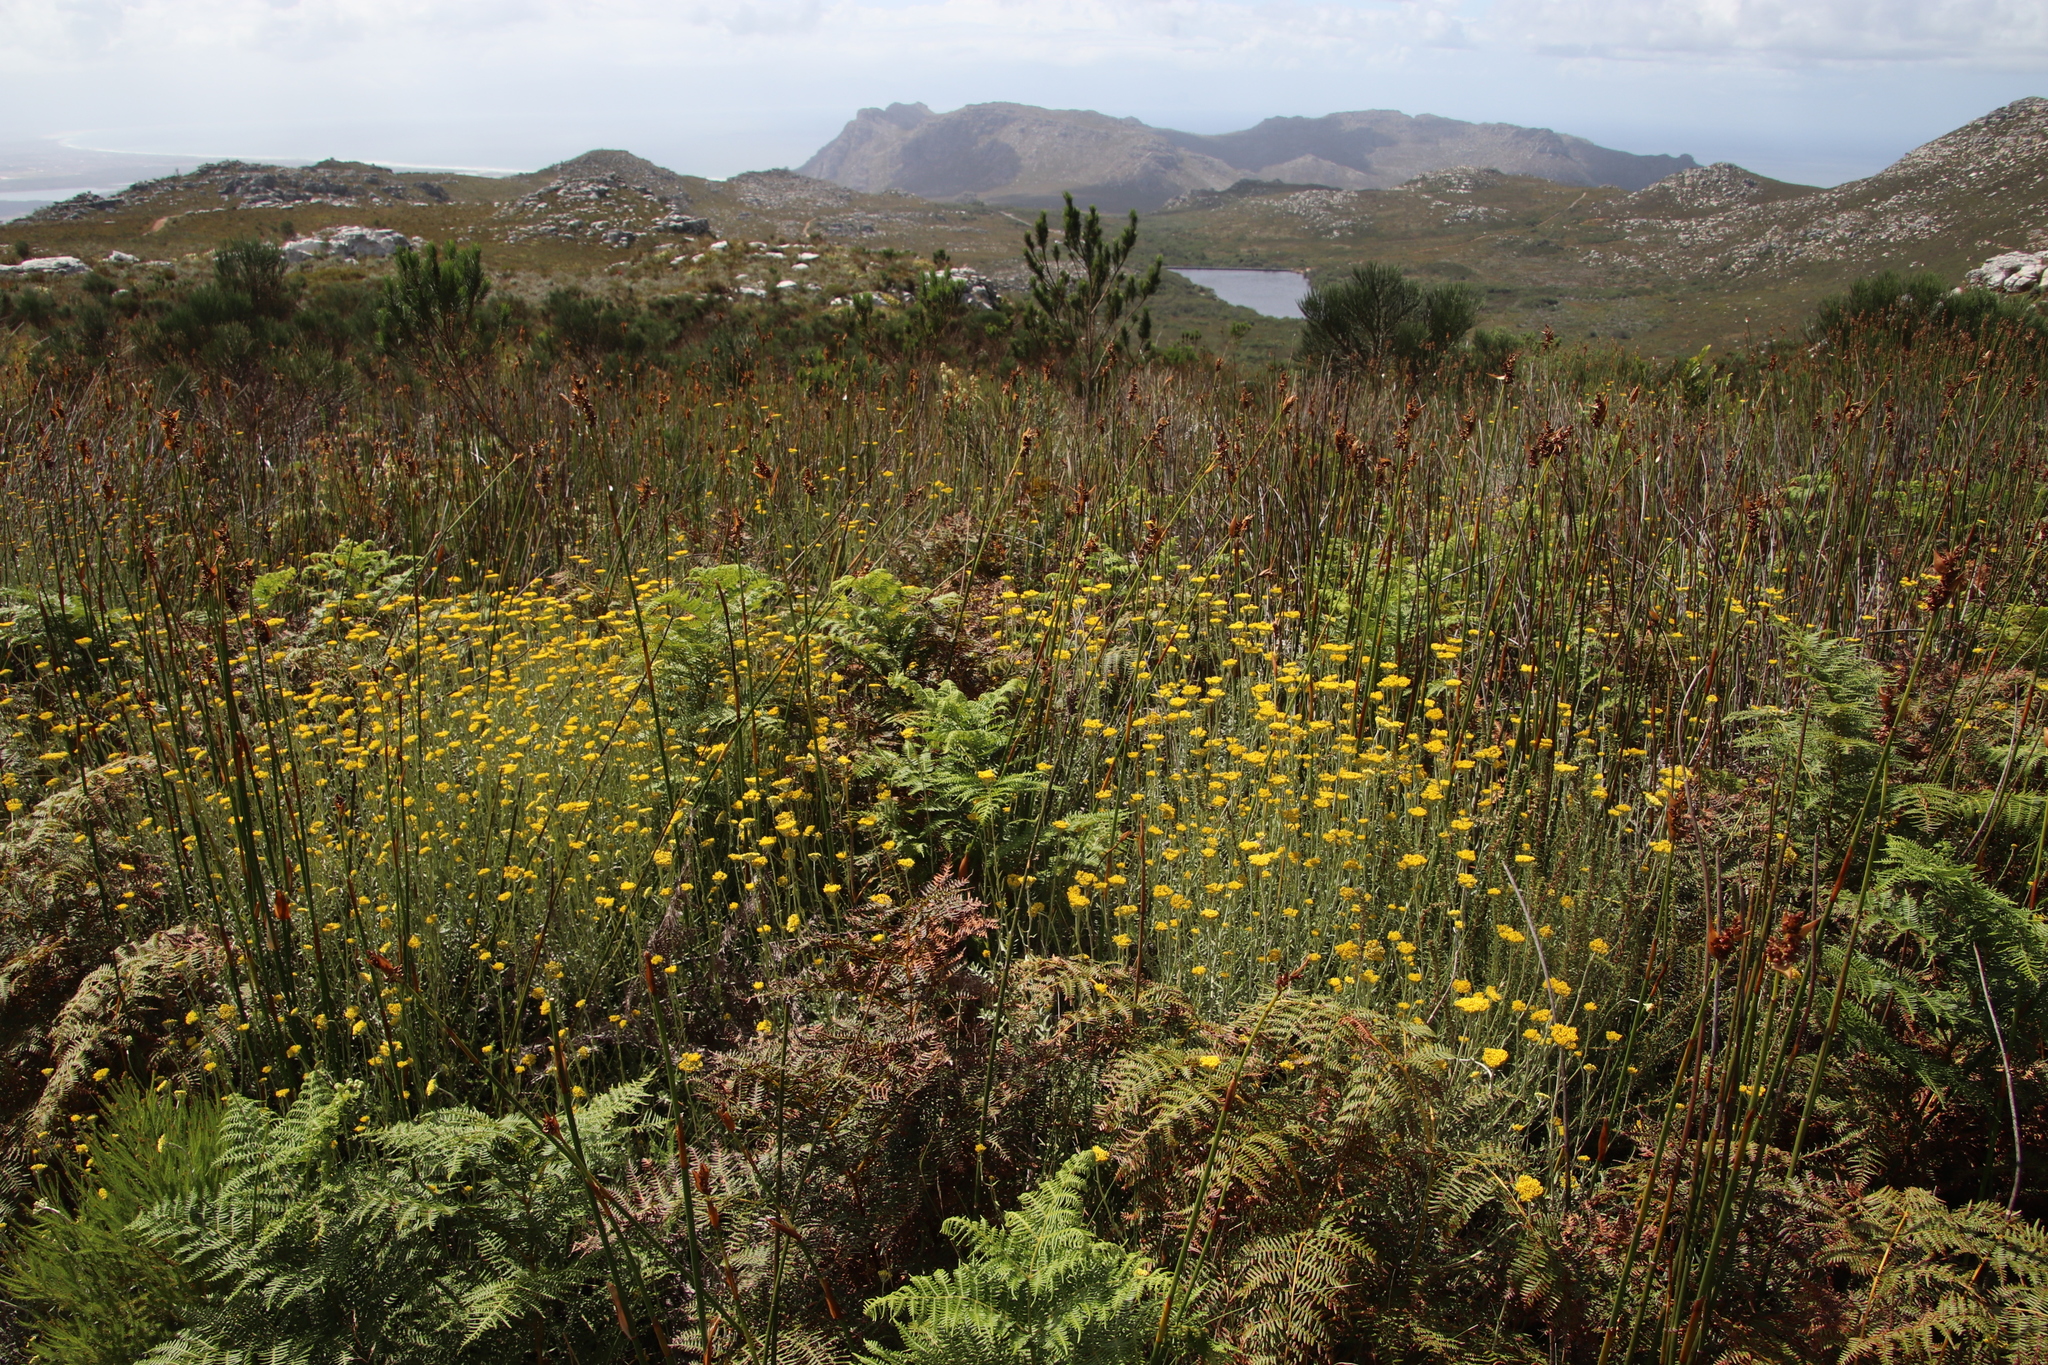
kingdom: Plantae
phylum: Tracheophyta
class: Magnoliopsida
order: Asterales
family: Asteraceae
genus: Helichrysum
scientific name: Helichrysum odoratissimum
